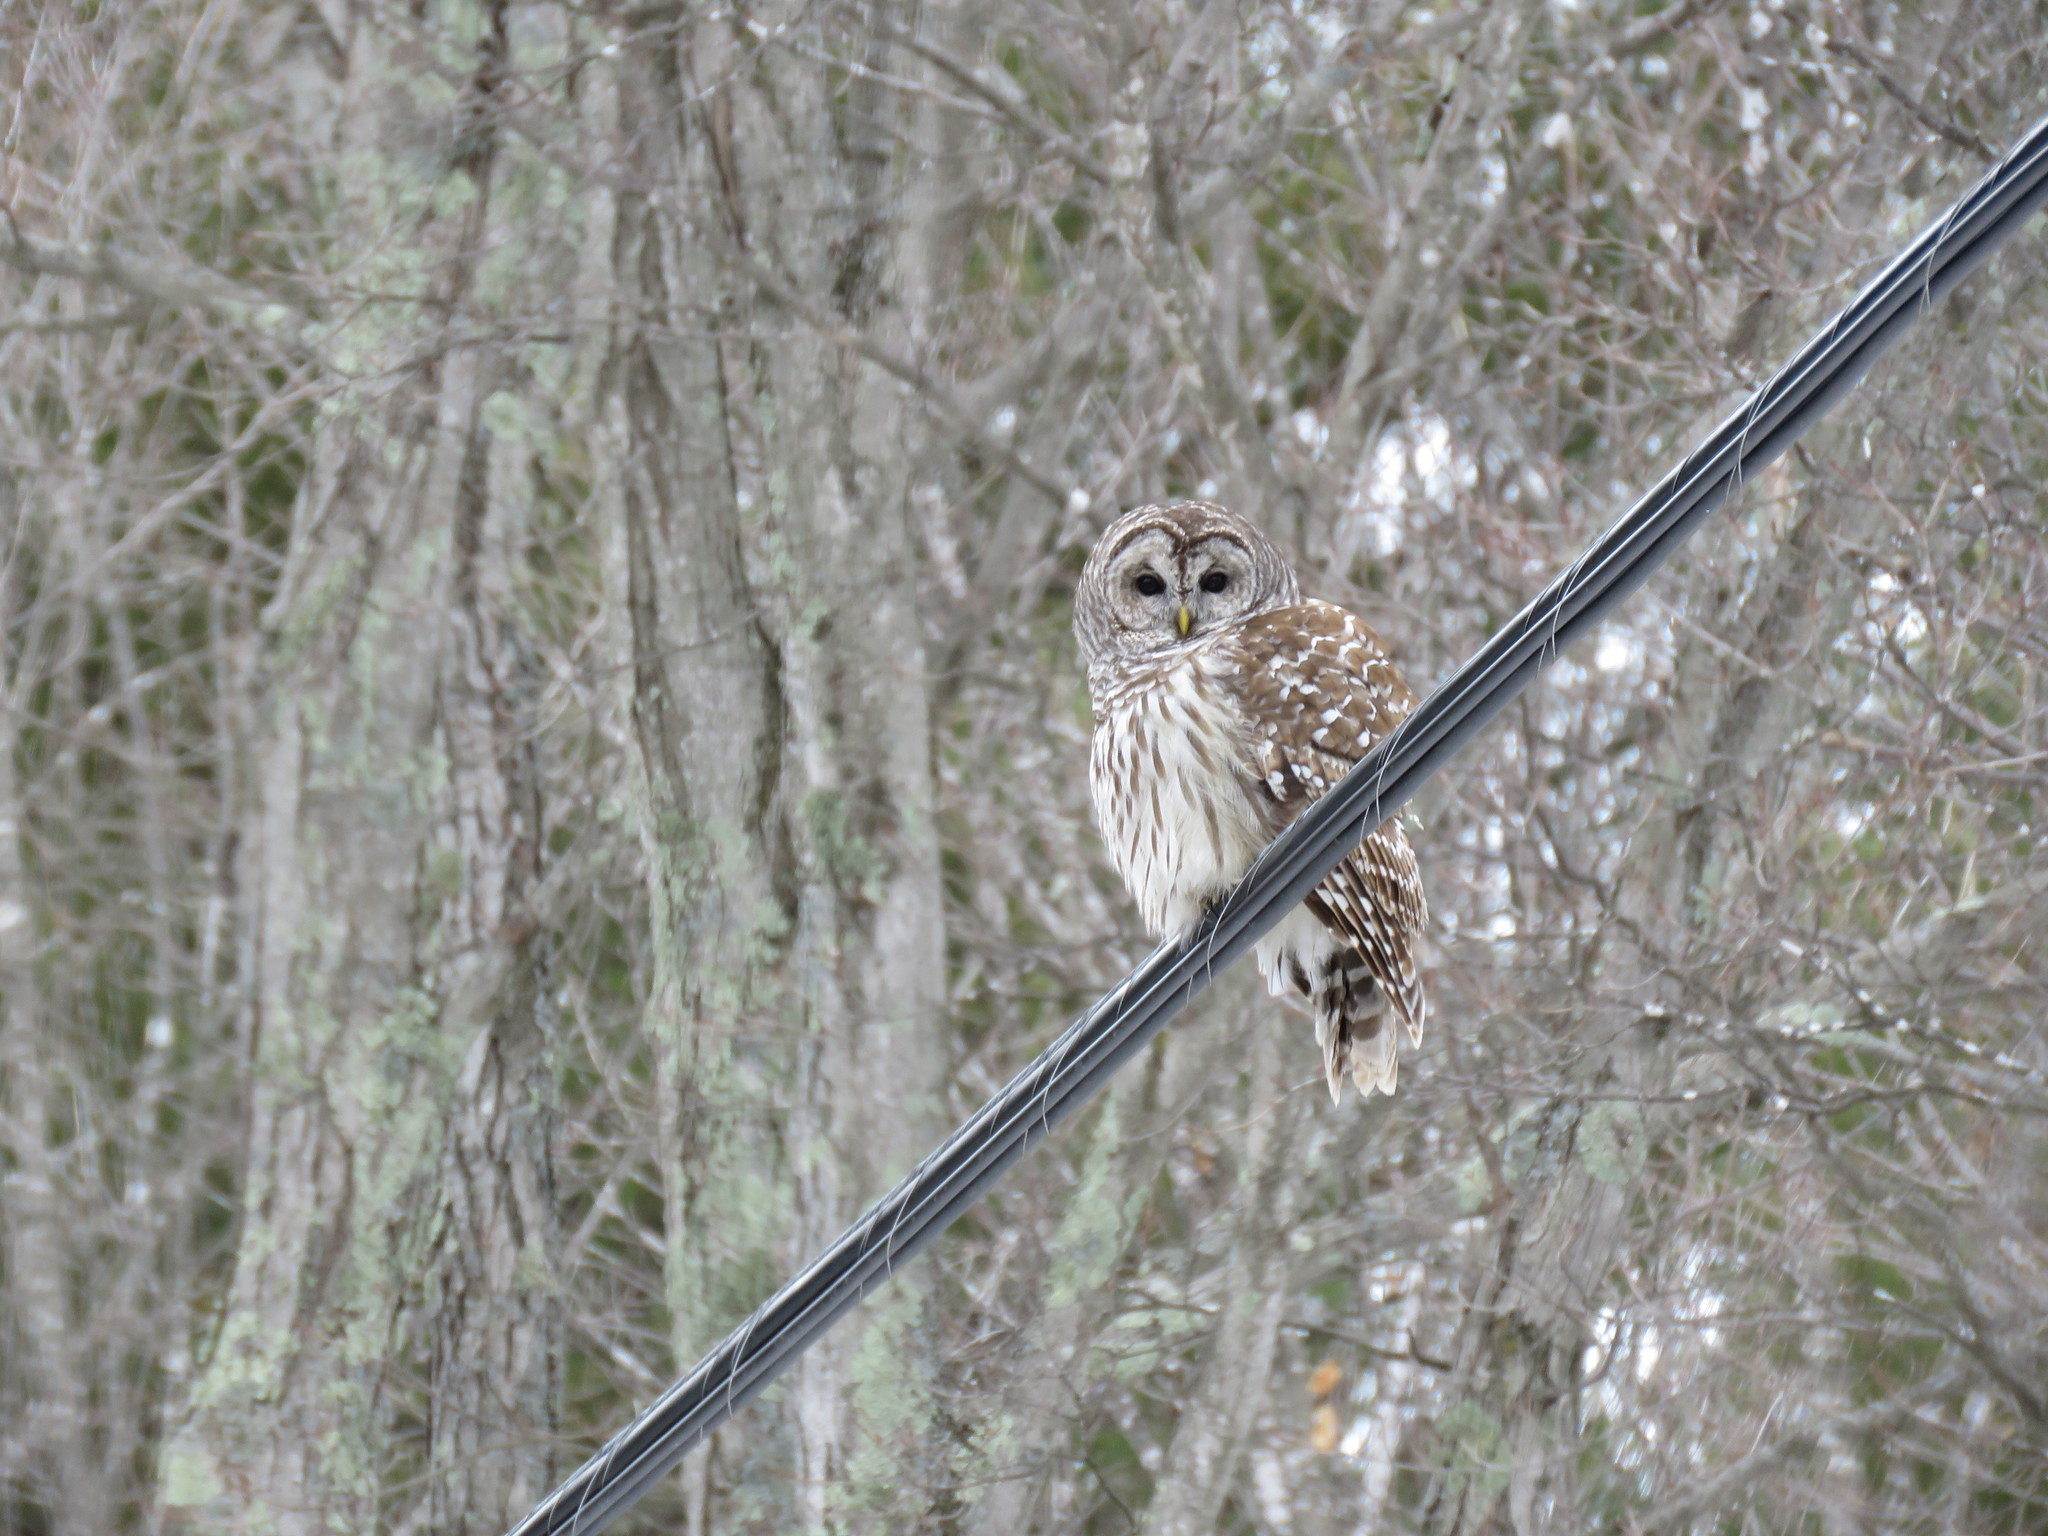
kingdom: Animalia
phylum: Chordata
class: Aves
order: Strigiformes
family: Strigidae
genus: Strix
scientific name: Strix varia
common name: Barred owl
